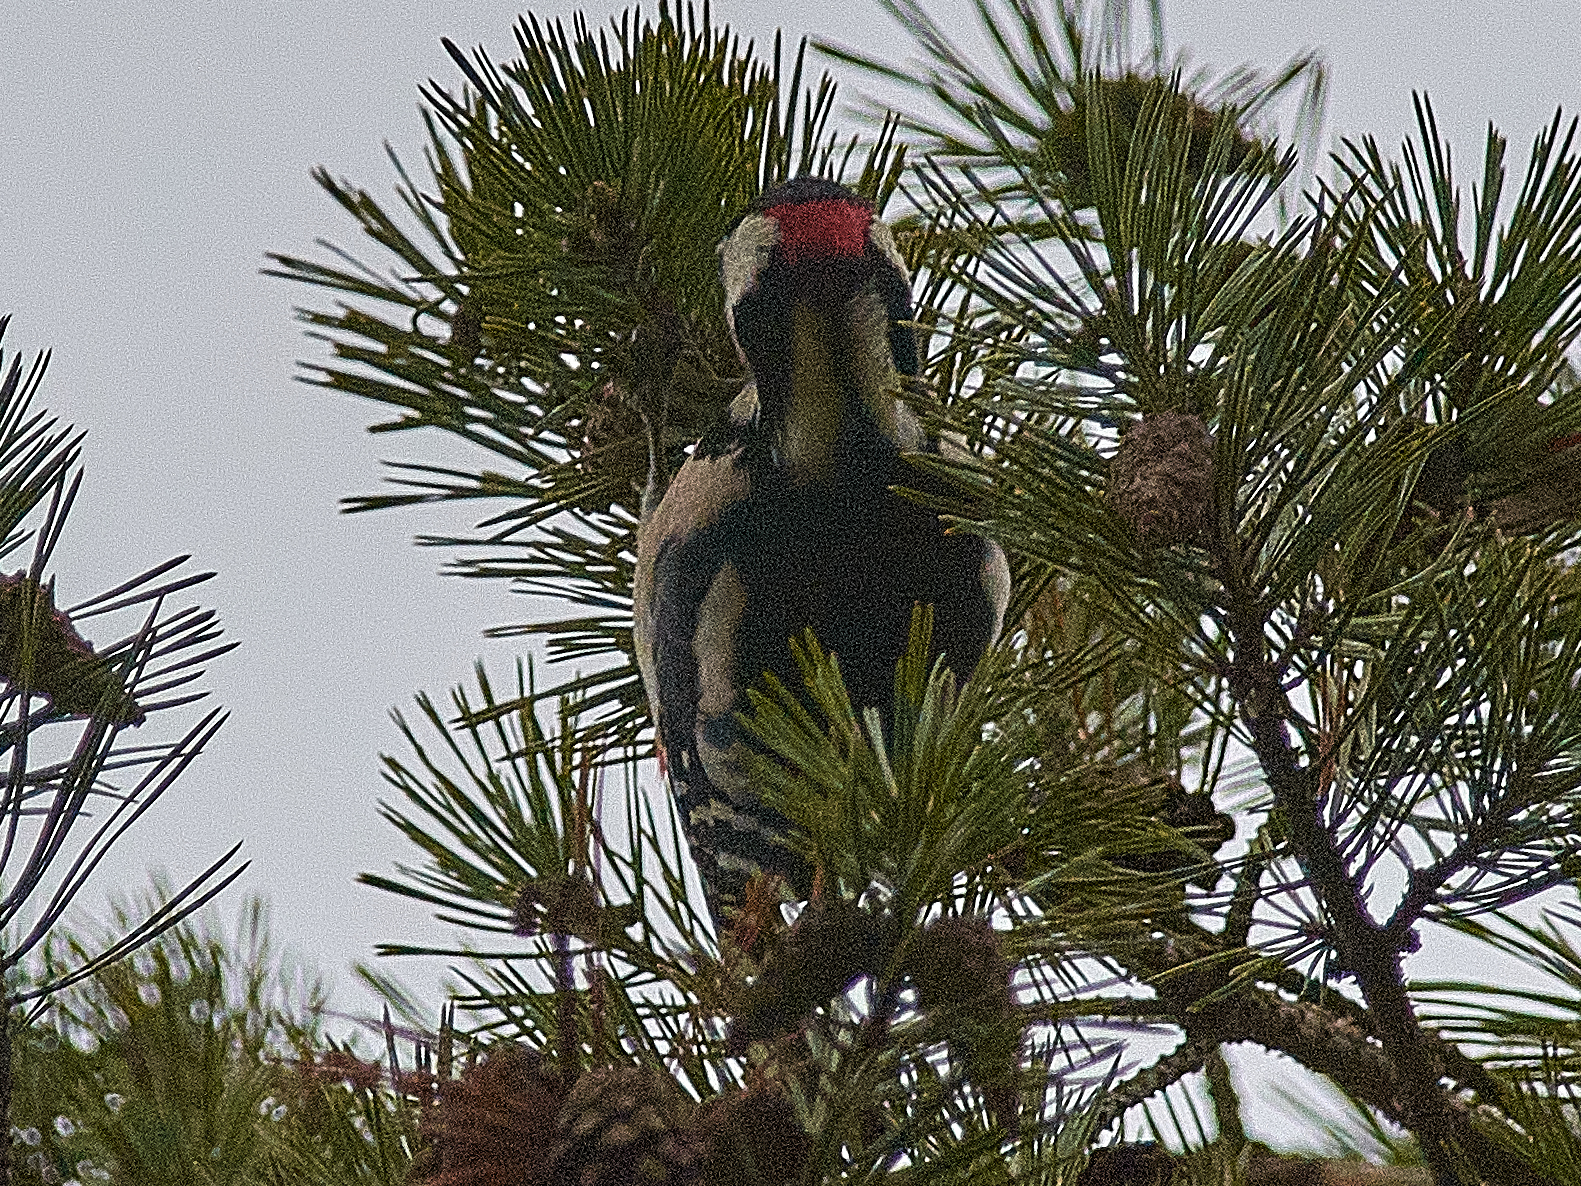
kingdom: Animalia
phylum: Chordata
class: Aves
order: Piciformes
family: Picidae
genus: Dendrocopos
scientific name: Dendrocopos major
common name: Great spotted woodpecker
